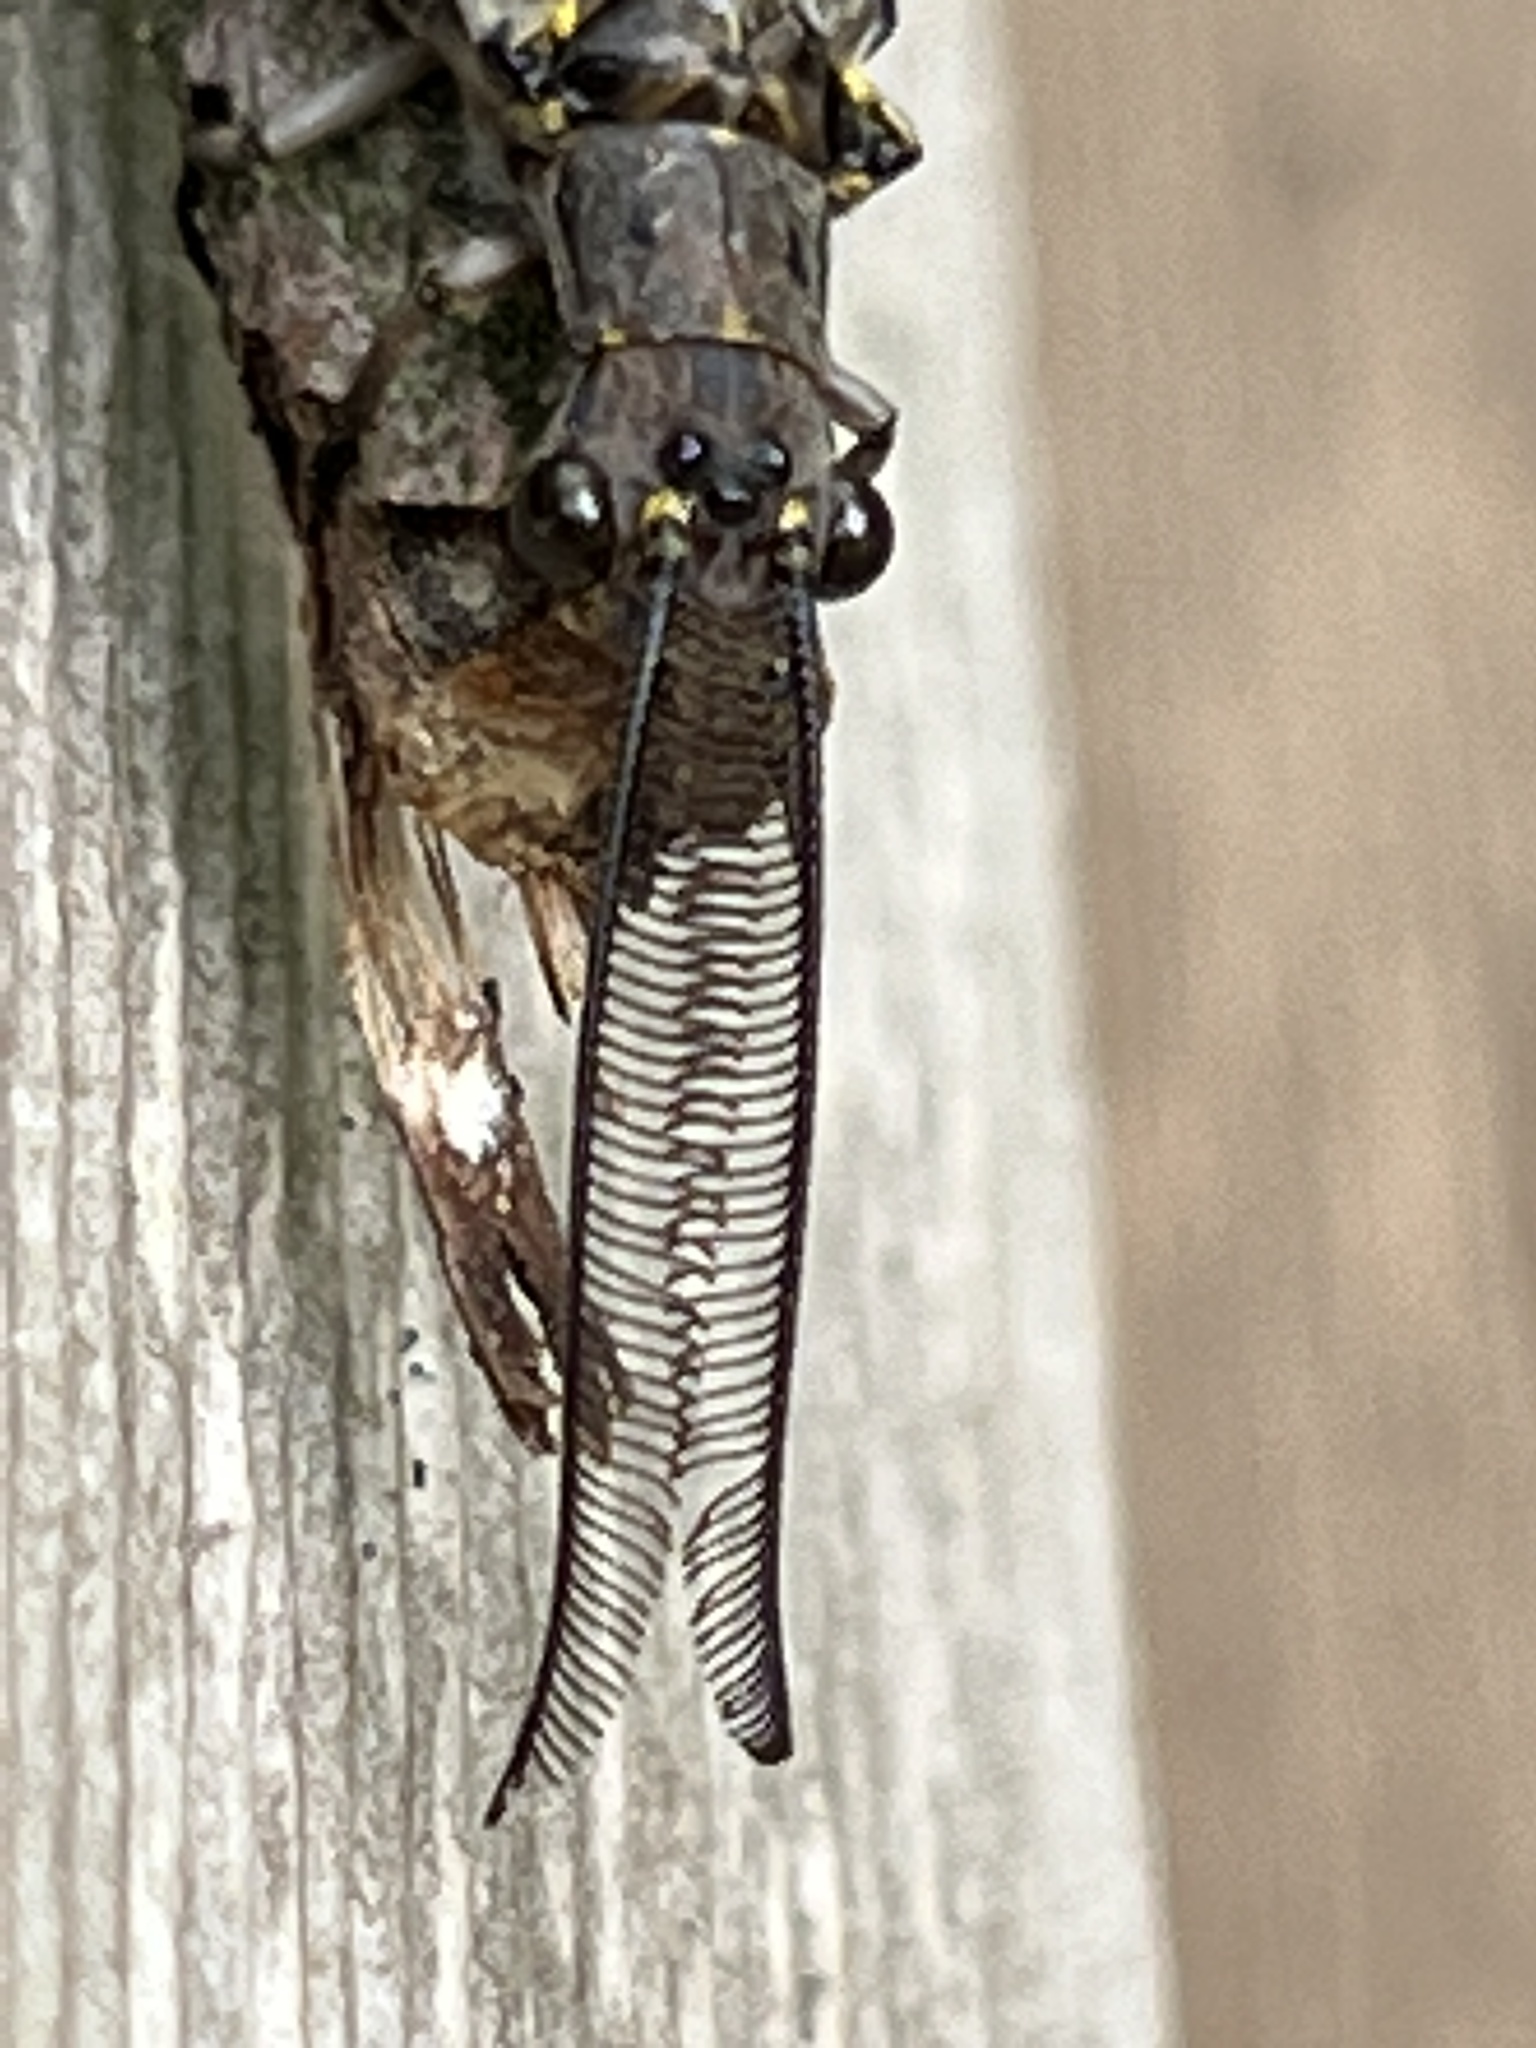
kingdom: Animalia
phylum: Arthropoda
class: Insecta
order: Megaloptera
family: Corydalidae
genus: Chauliodes
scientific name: Chauliodes rastricornis
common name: Spring fishfly
